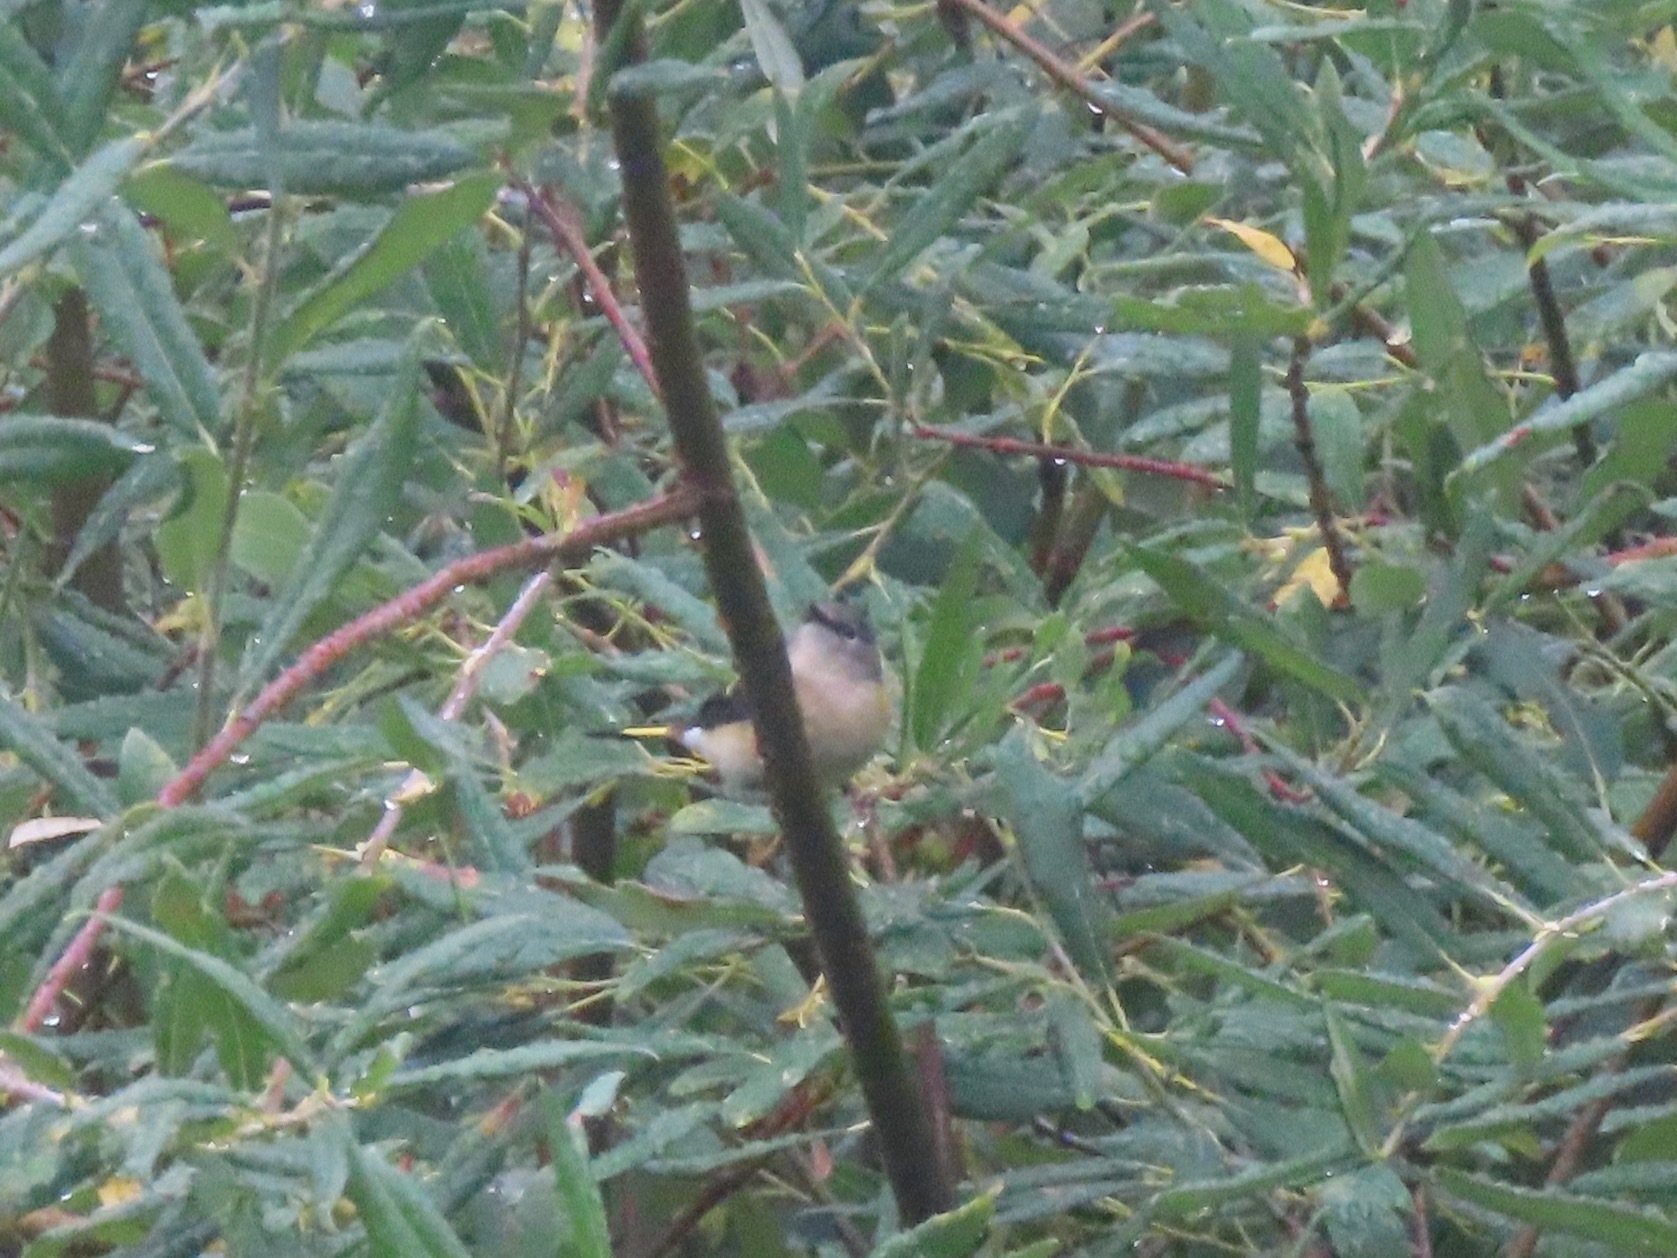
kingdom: Animalia
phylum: Chordata
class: Aves
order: Passeriformes
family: Parulidae
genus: Setophaga
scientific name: Setophaga ruticilla
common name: American redstart
